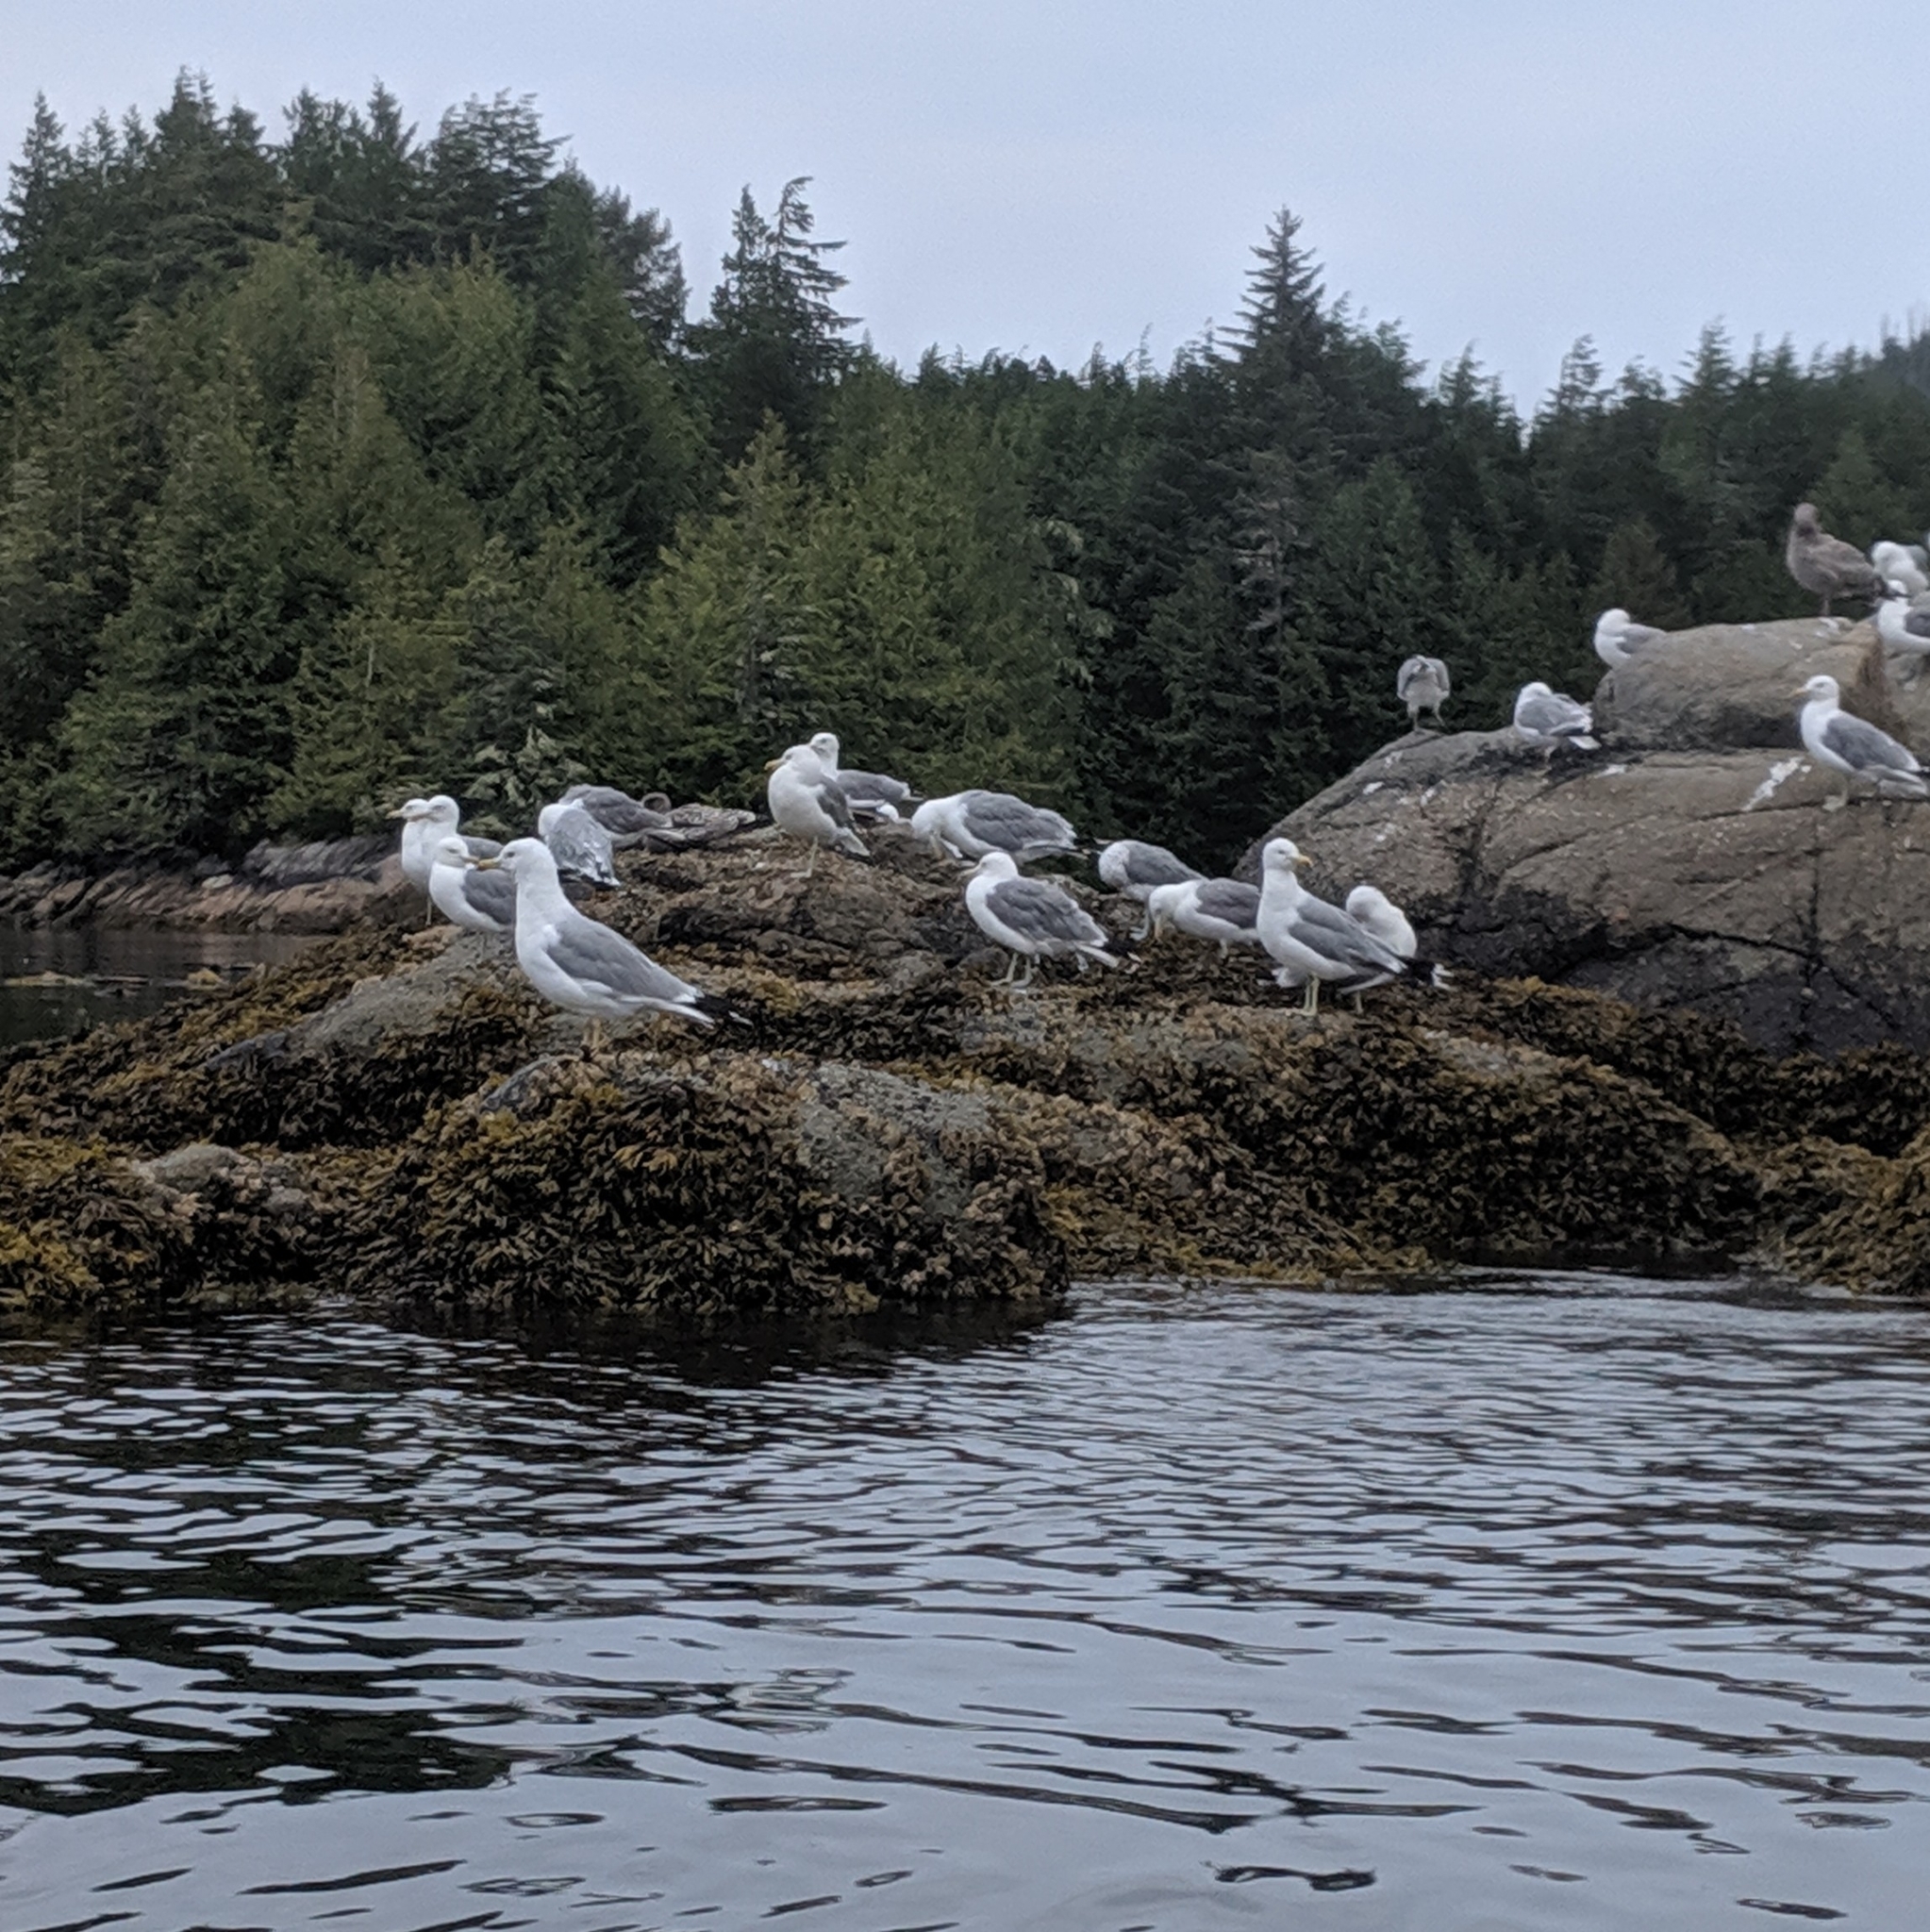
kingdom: Animalia
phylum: Chordata
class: Aves
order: Charadriiformes
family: Laridae
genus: Larus
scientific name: Larus californicus
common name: California gull
